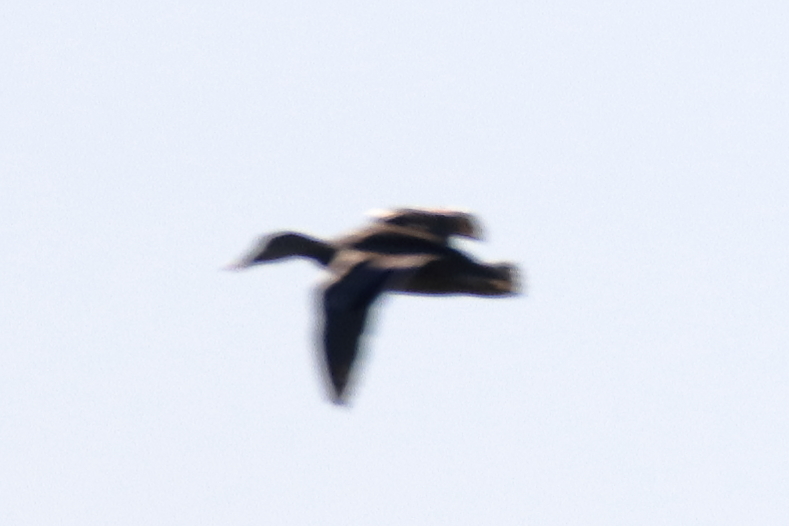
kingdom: Animalia
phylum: Chordata
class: Aves
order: Anseriformes
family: Anatidae
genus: Spatula
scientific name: Spatula clypeata
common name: Northern shoveler
